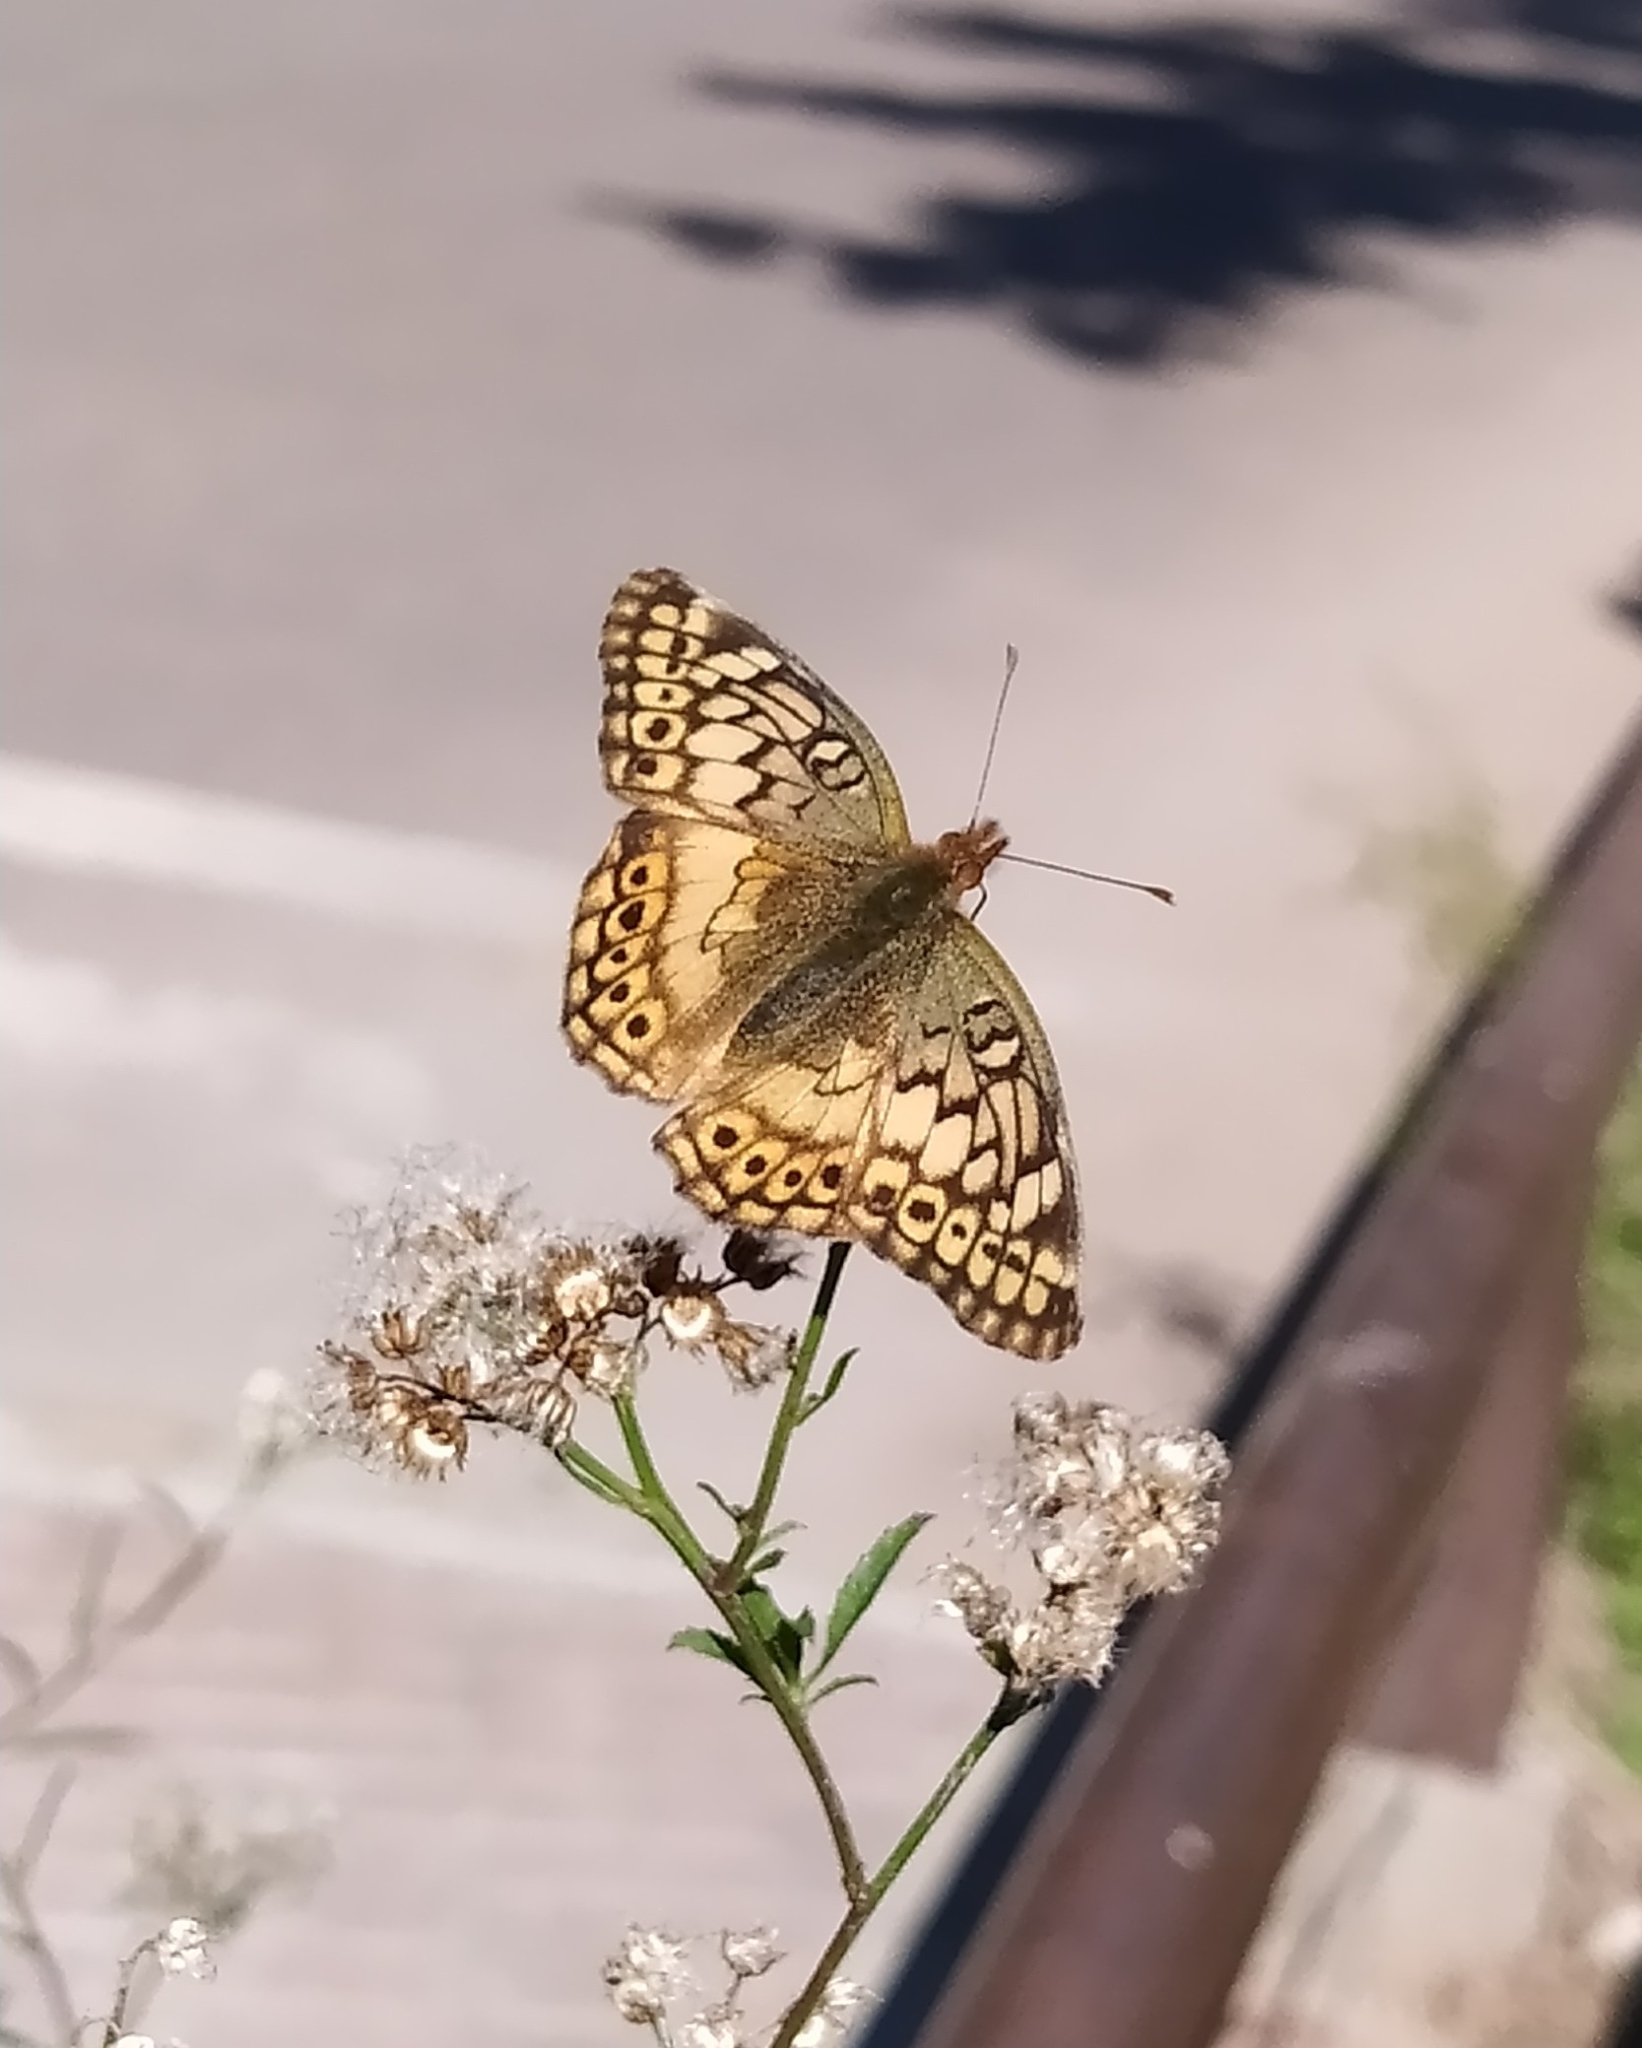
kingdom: Animalia
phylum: Arthropoda
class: Insecta
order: Lepidoptera
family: Nymphalidae
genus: Euptoieta
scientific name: Euptoieta hortensia
